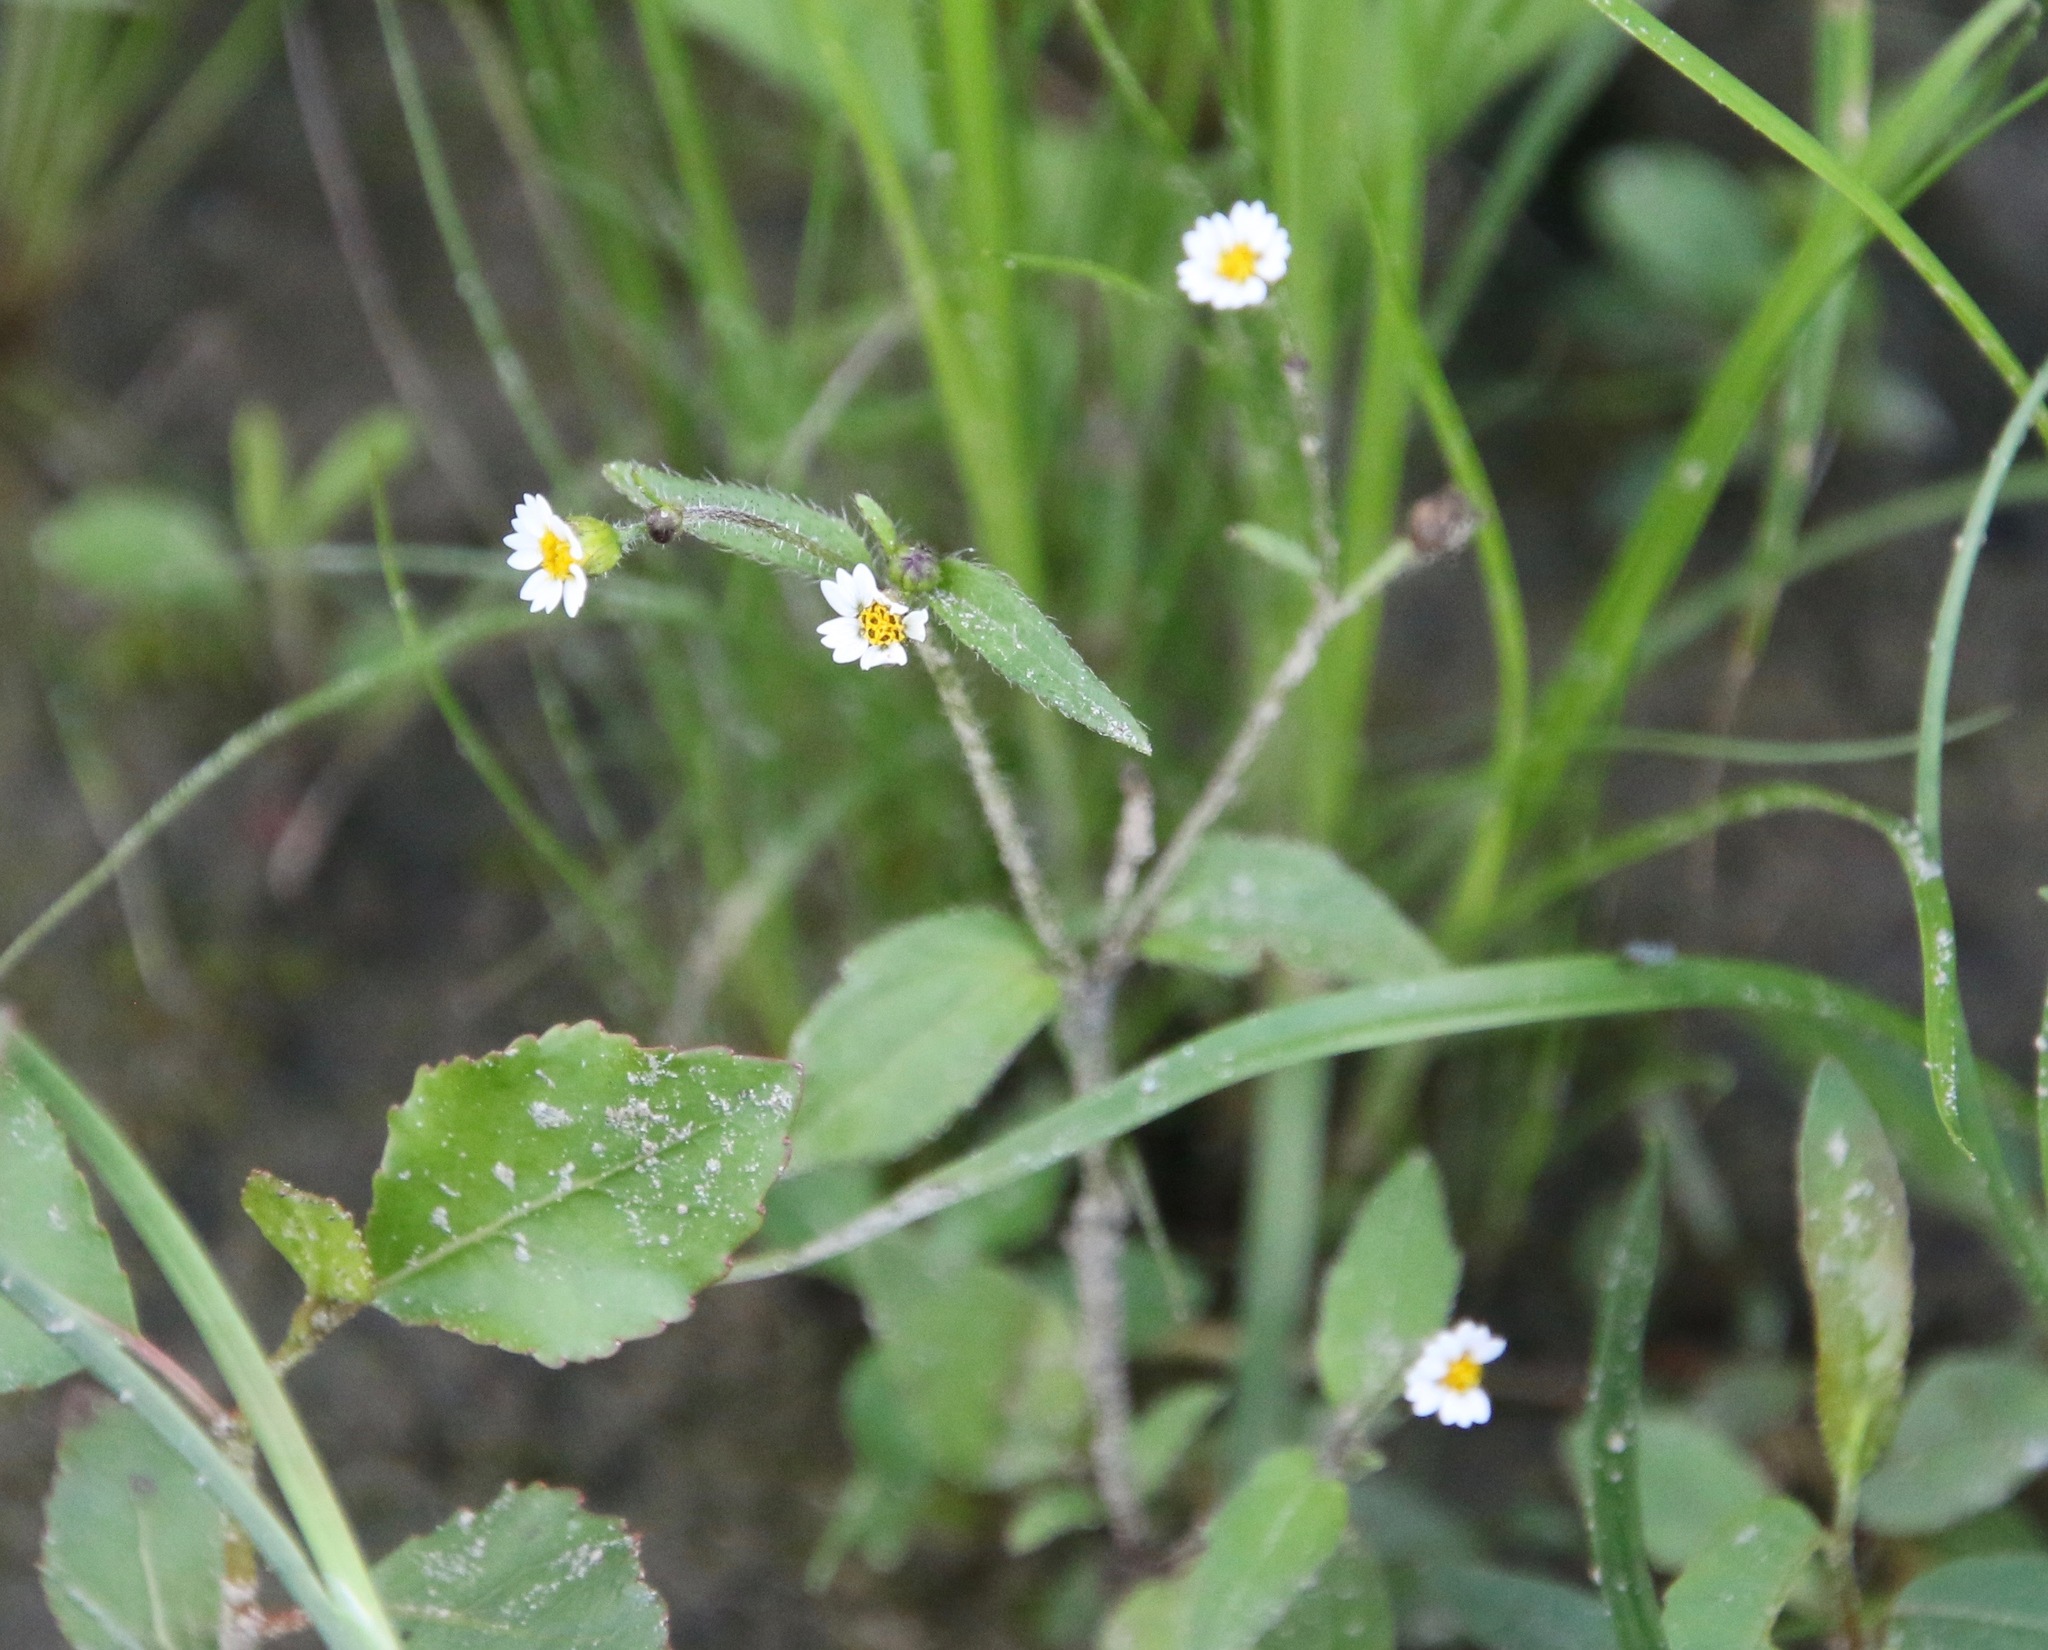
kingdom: Plantae
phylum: Tracheophyta
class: Magnoliopsida
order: Asterales
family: Asteraceae
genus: Galinsoga
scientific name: Galinsoga quadriradiata
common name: Shaggy soldier
